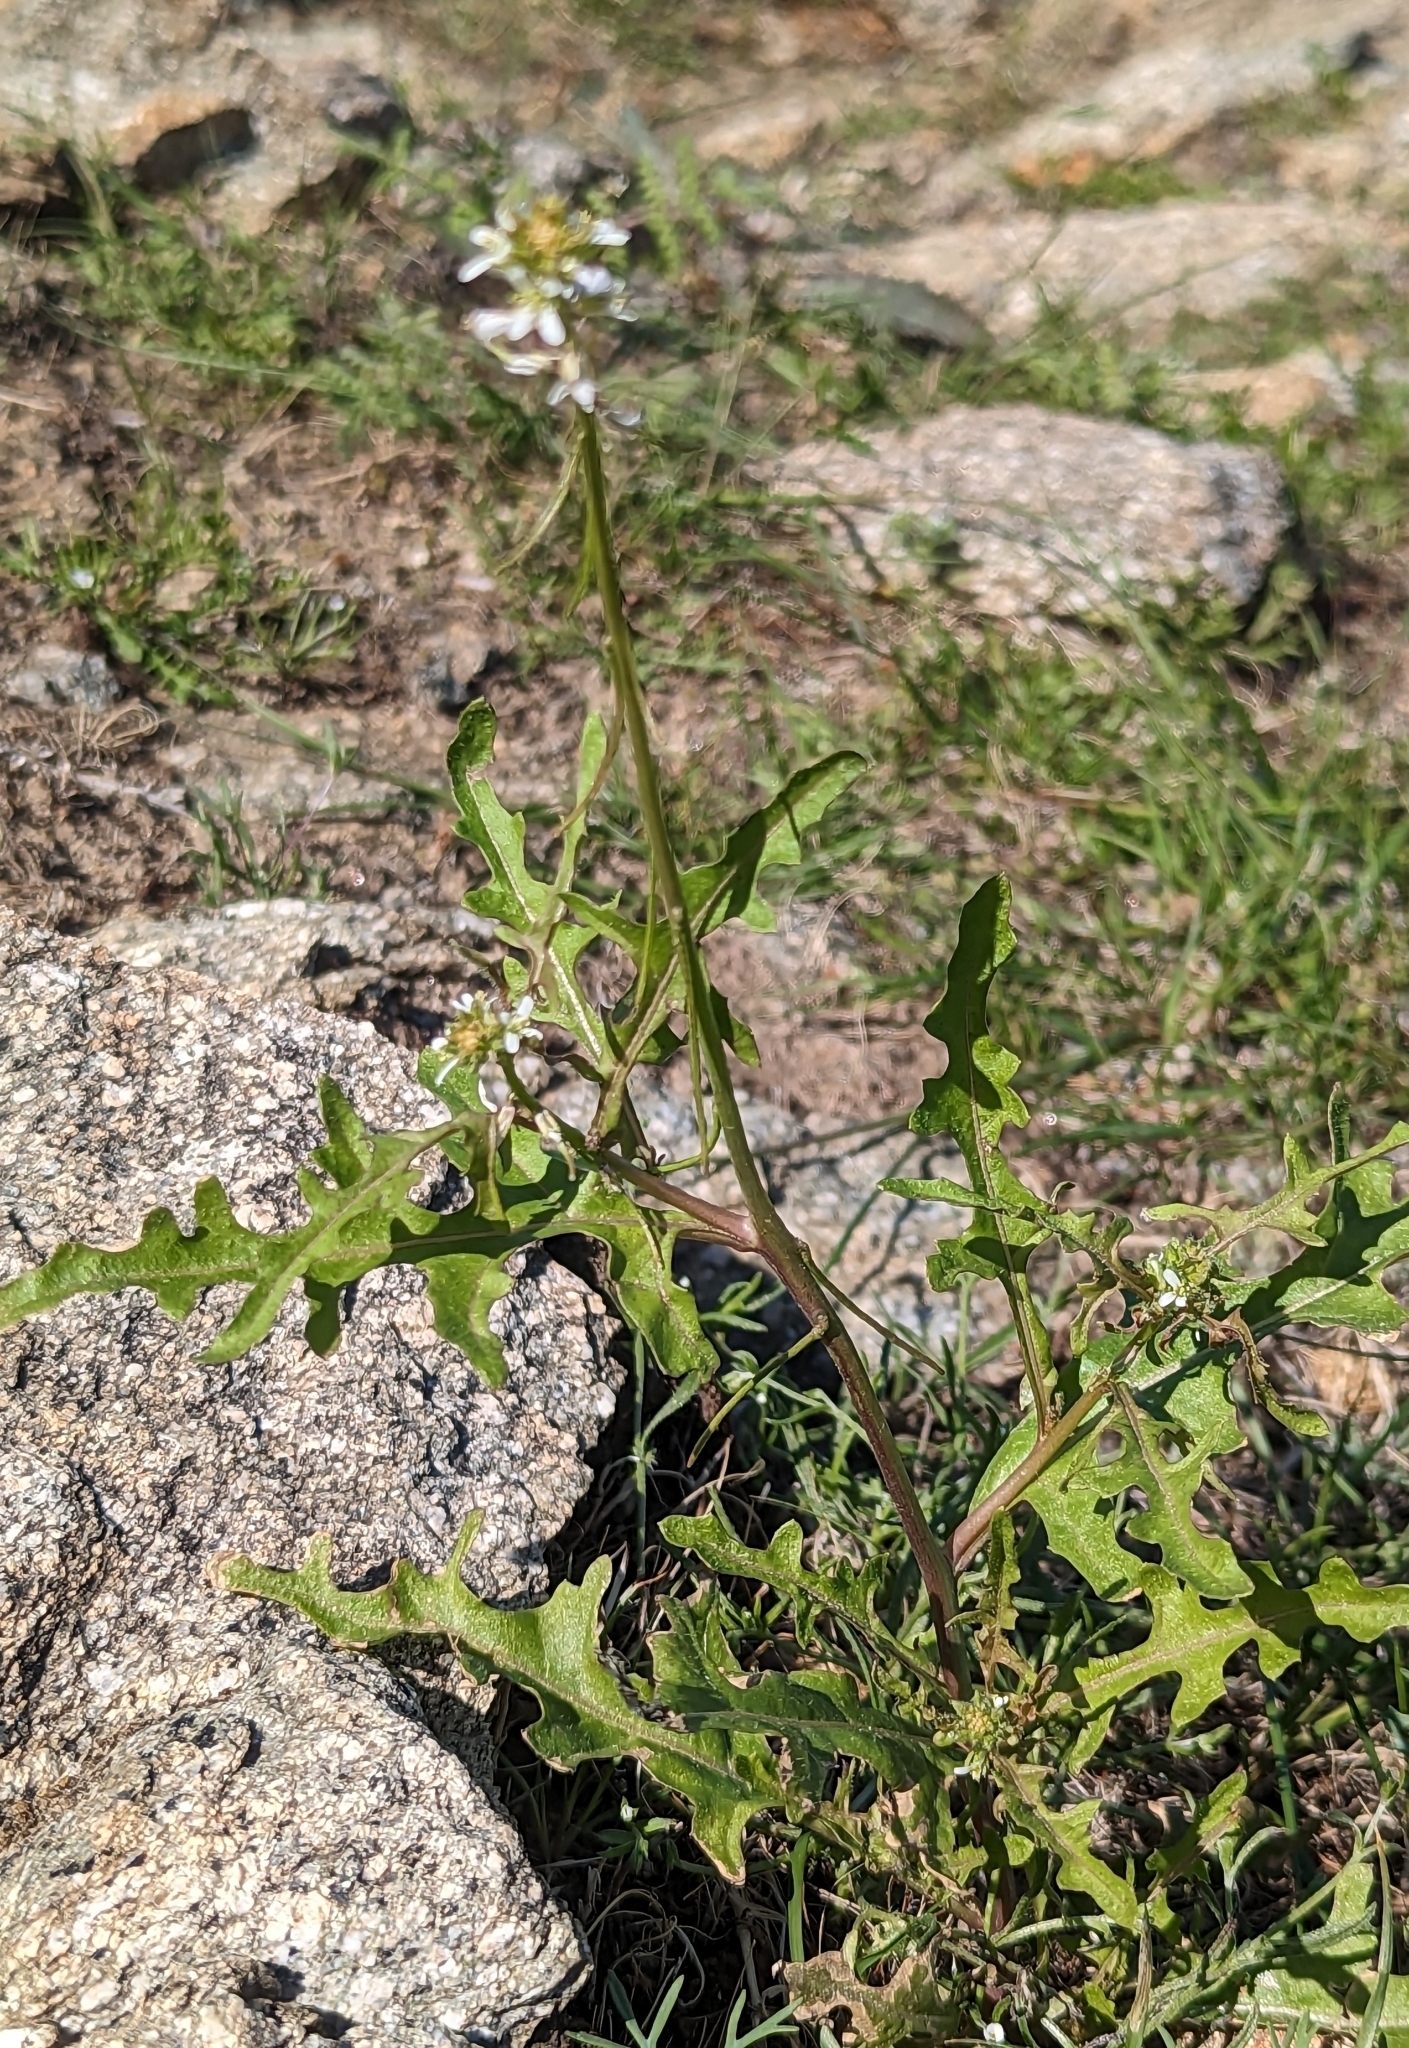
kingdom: Plantae
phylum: Tracheophyta
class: Magnoliopsida
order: Brassicales
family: Brassicaceae
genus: Streptanthus
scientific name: Streptanthus lasiophyllus
